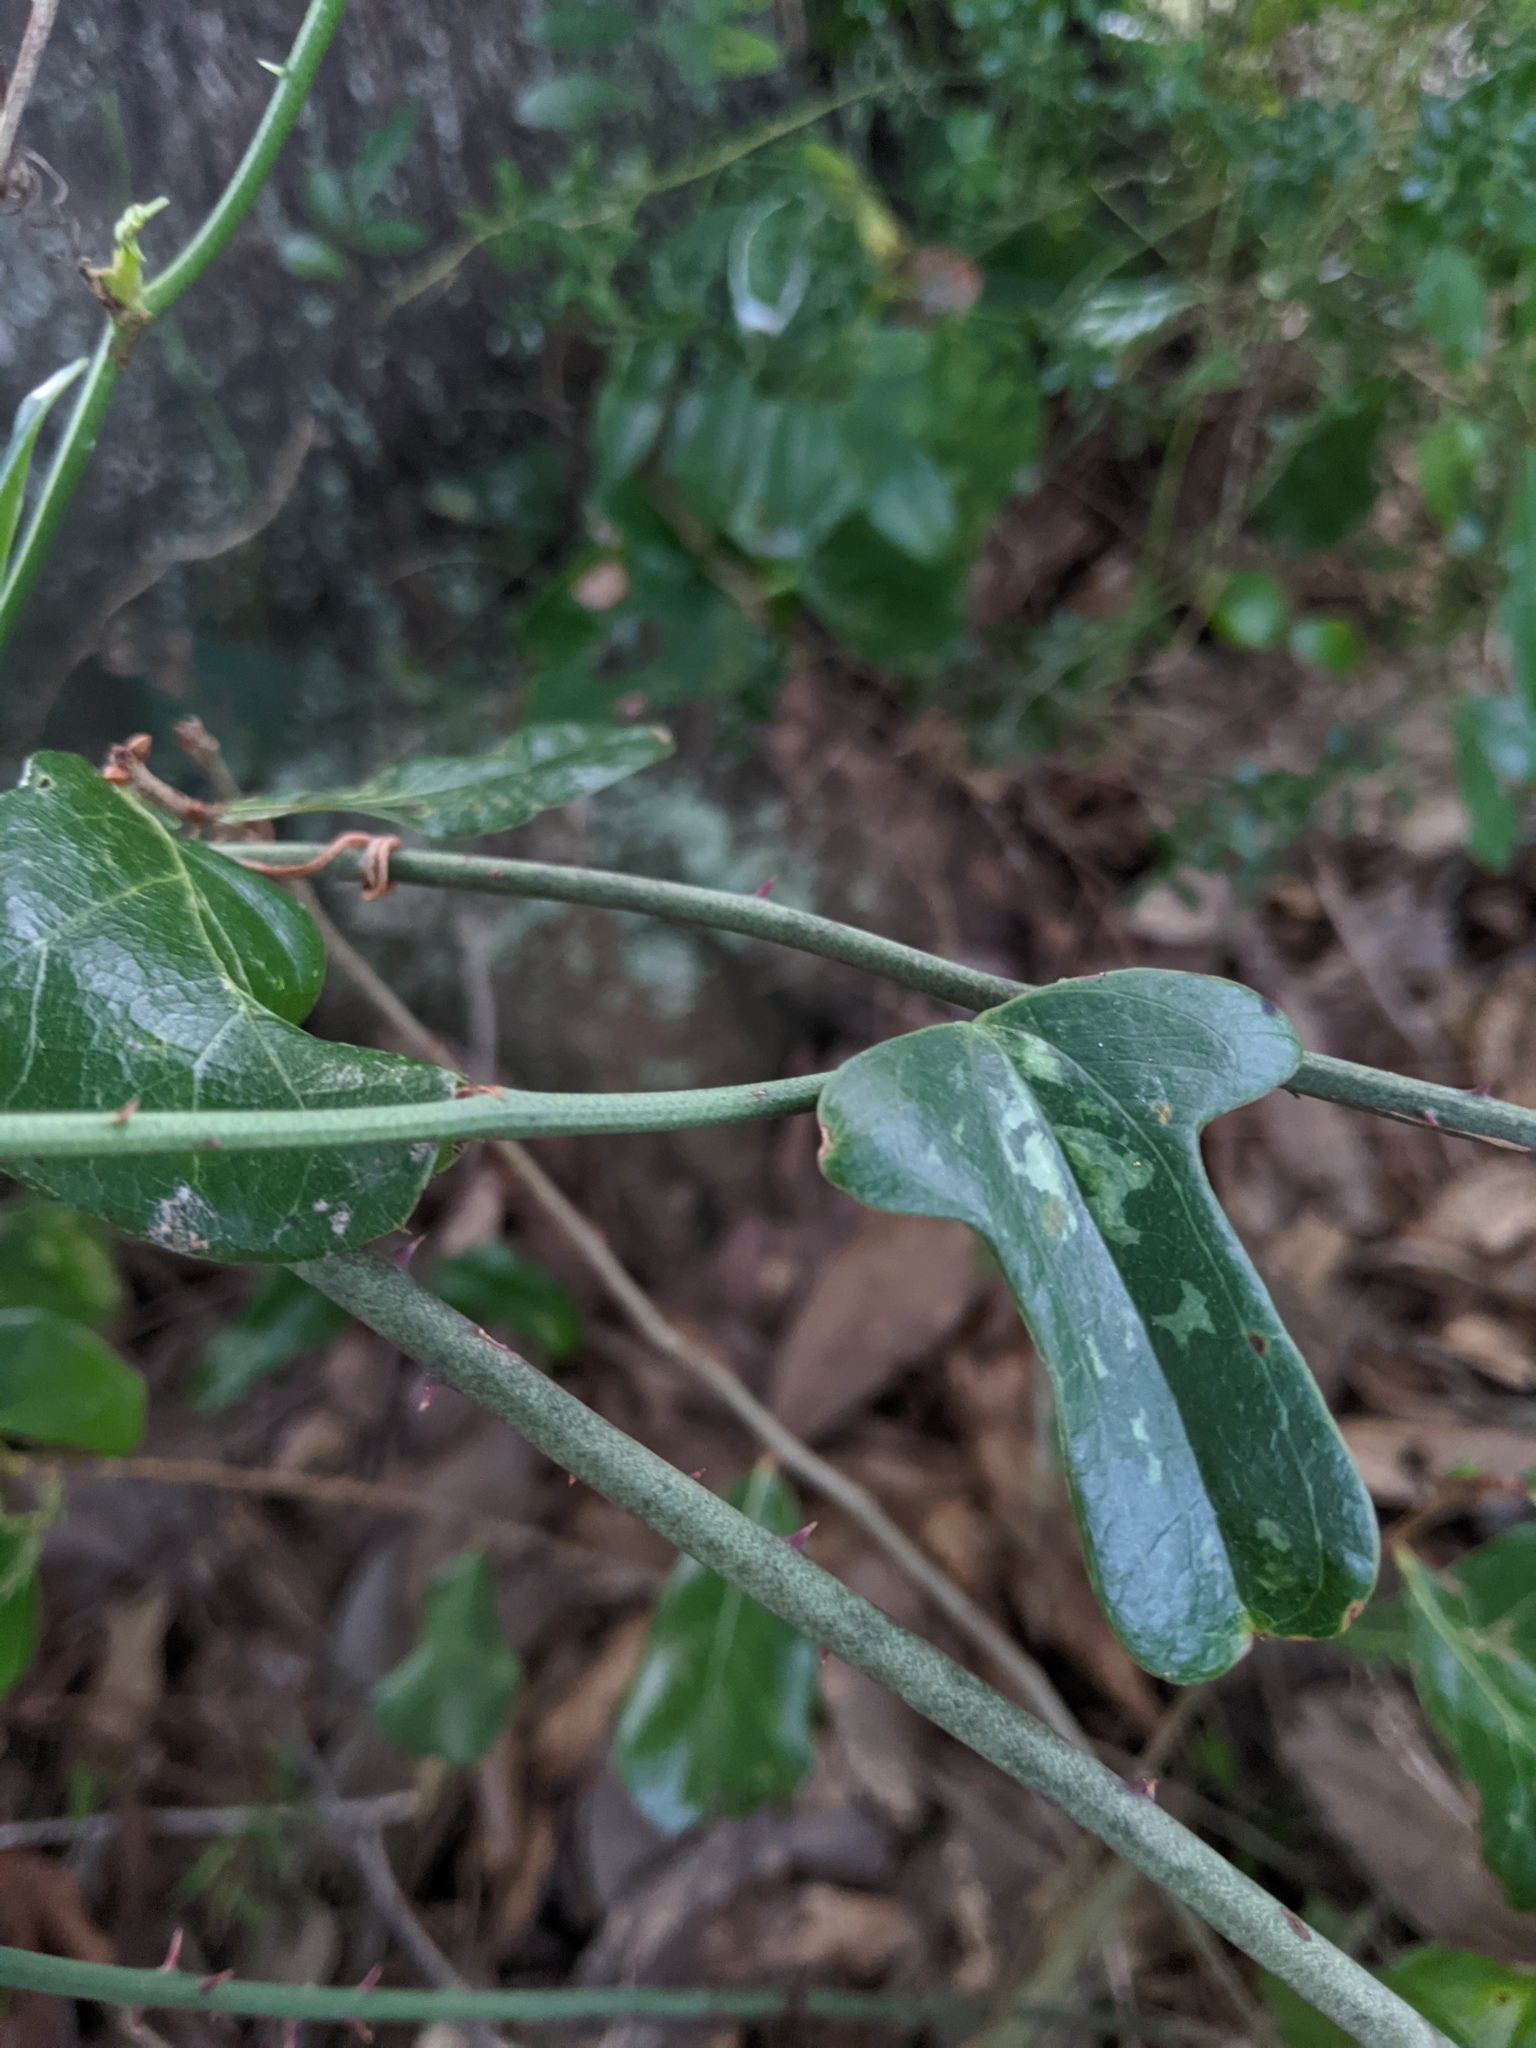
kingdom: Plantae
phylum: Tracheophyta
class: Liliopsida
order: Liliales
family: Smilacaceae
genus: Smilax
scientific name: Smilax auriculata
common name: Wild bamboo
